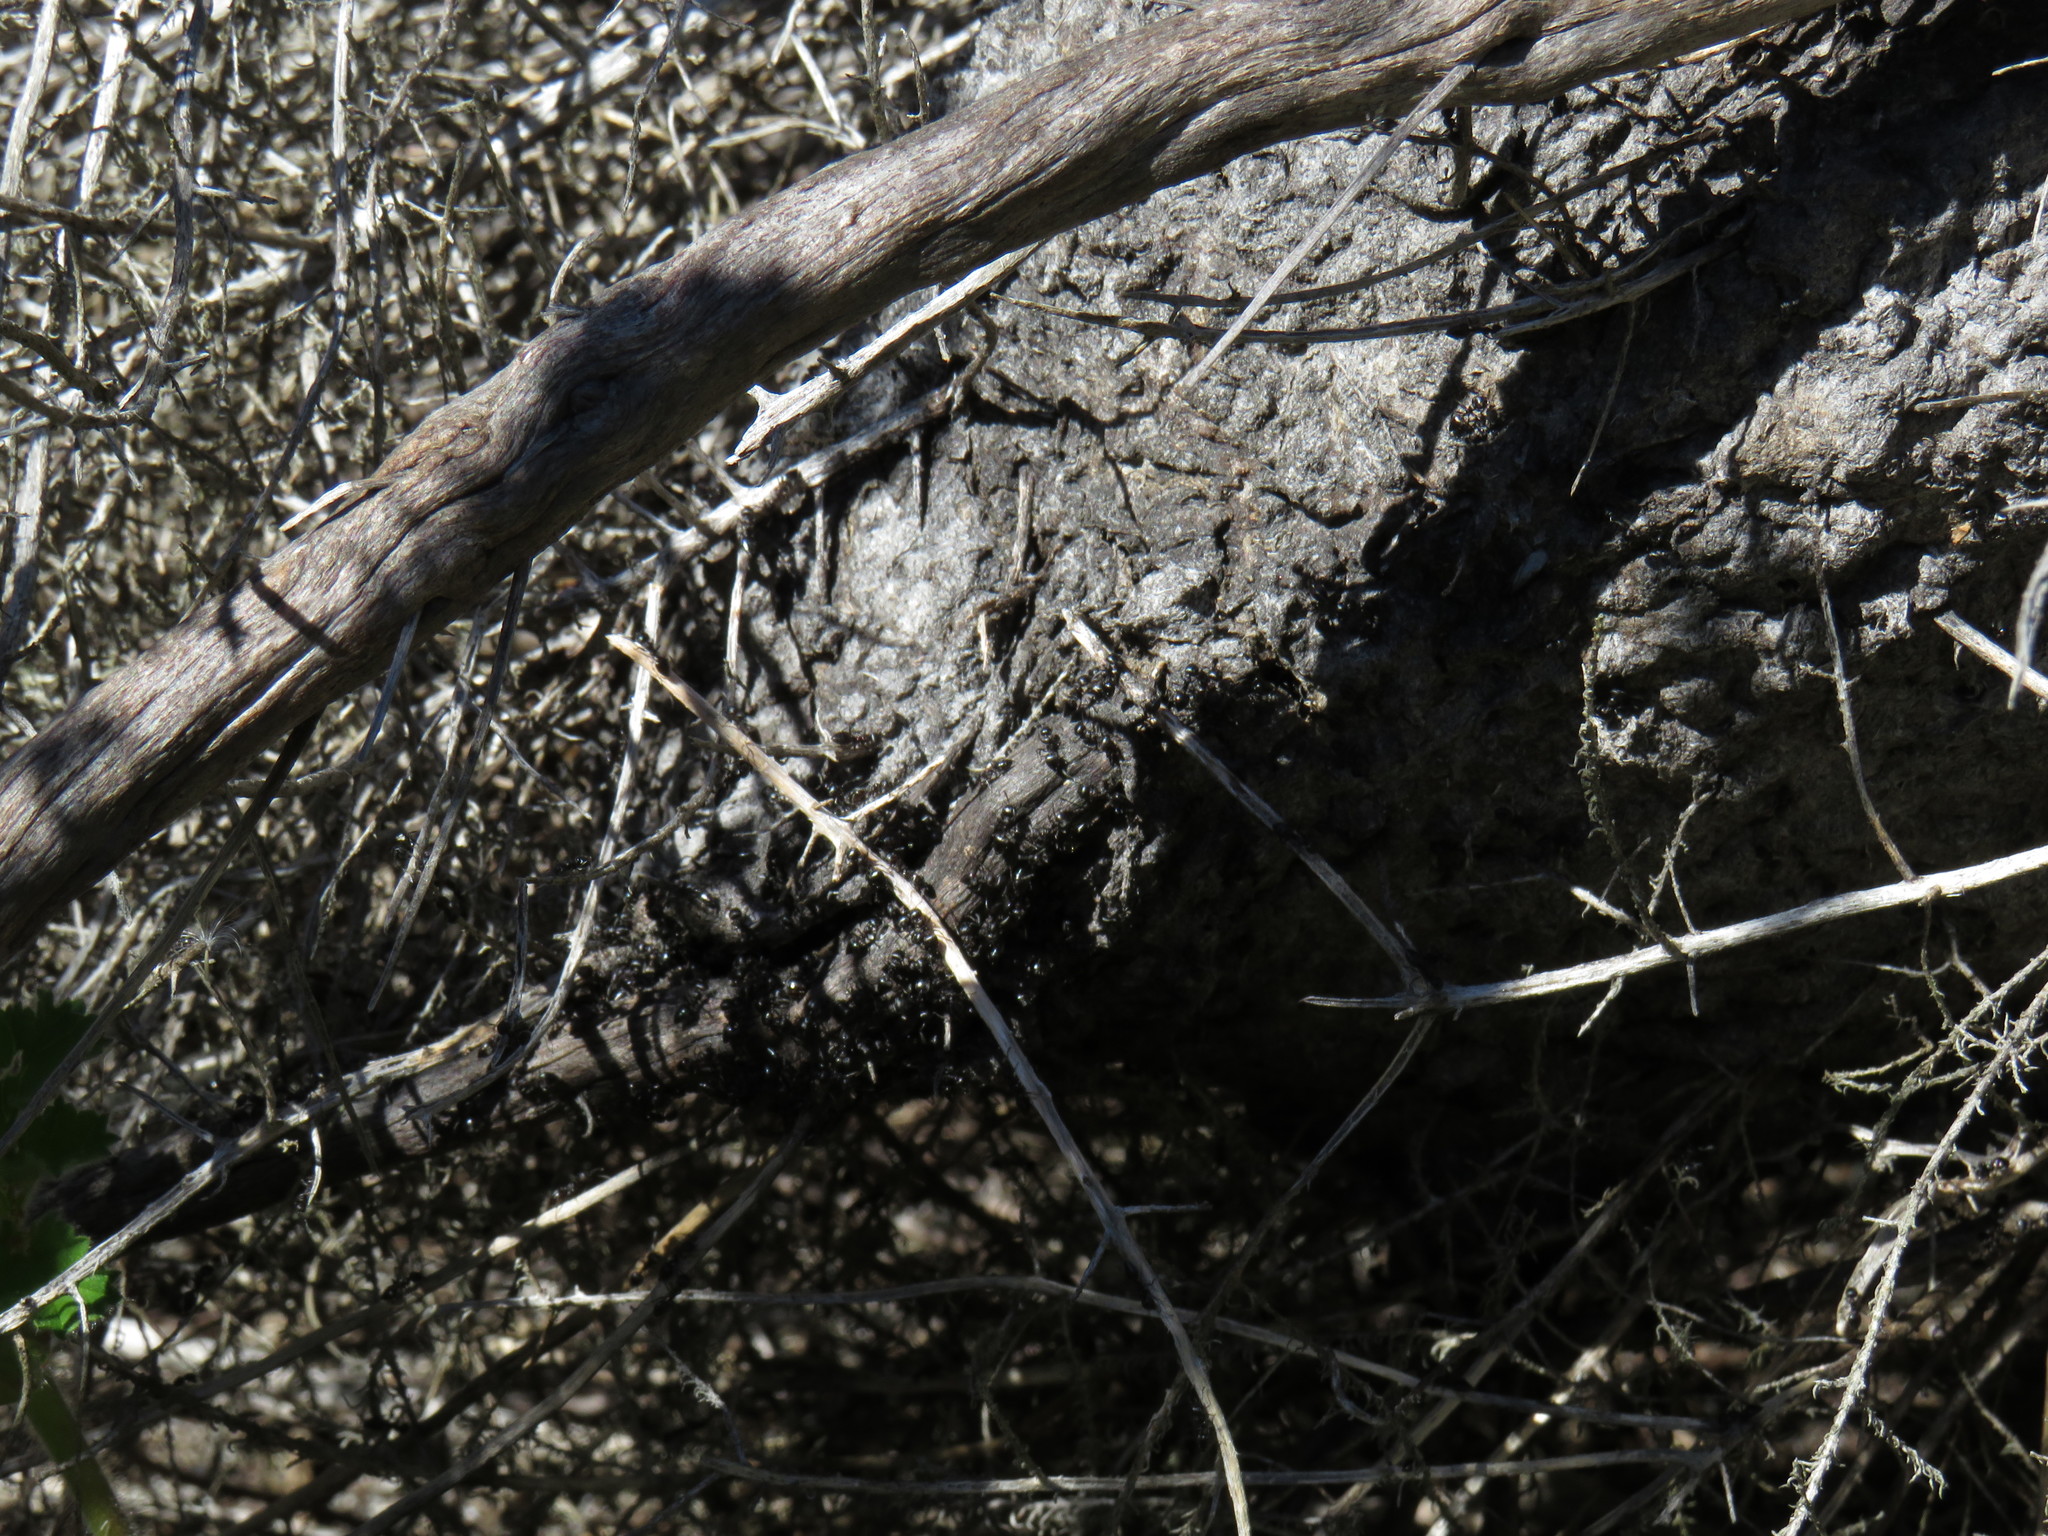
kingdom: Animalia
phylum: Arthropoda
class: Insecta
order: Hymenoptera
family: Formicidae
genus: Crematogaster
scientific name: Crematogaster peringueyi
